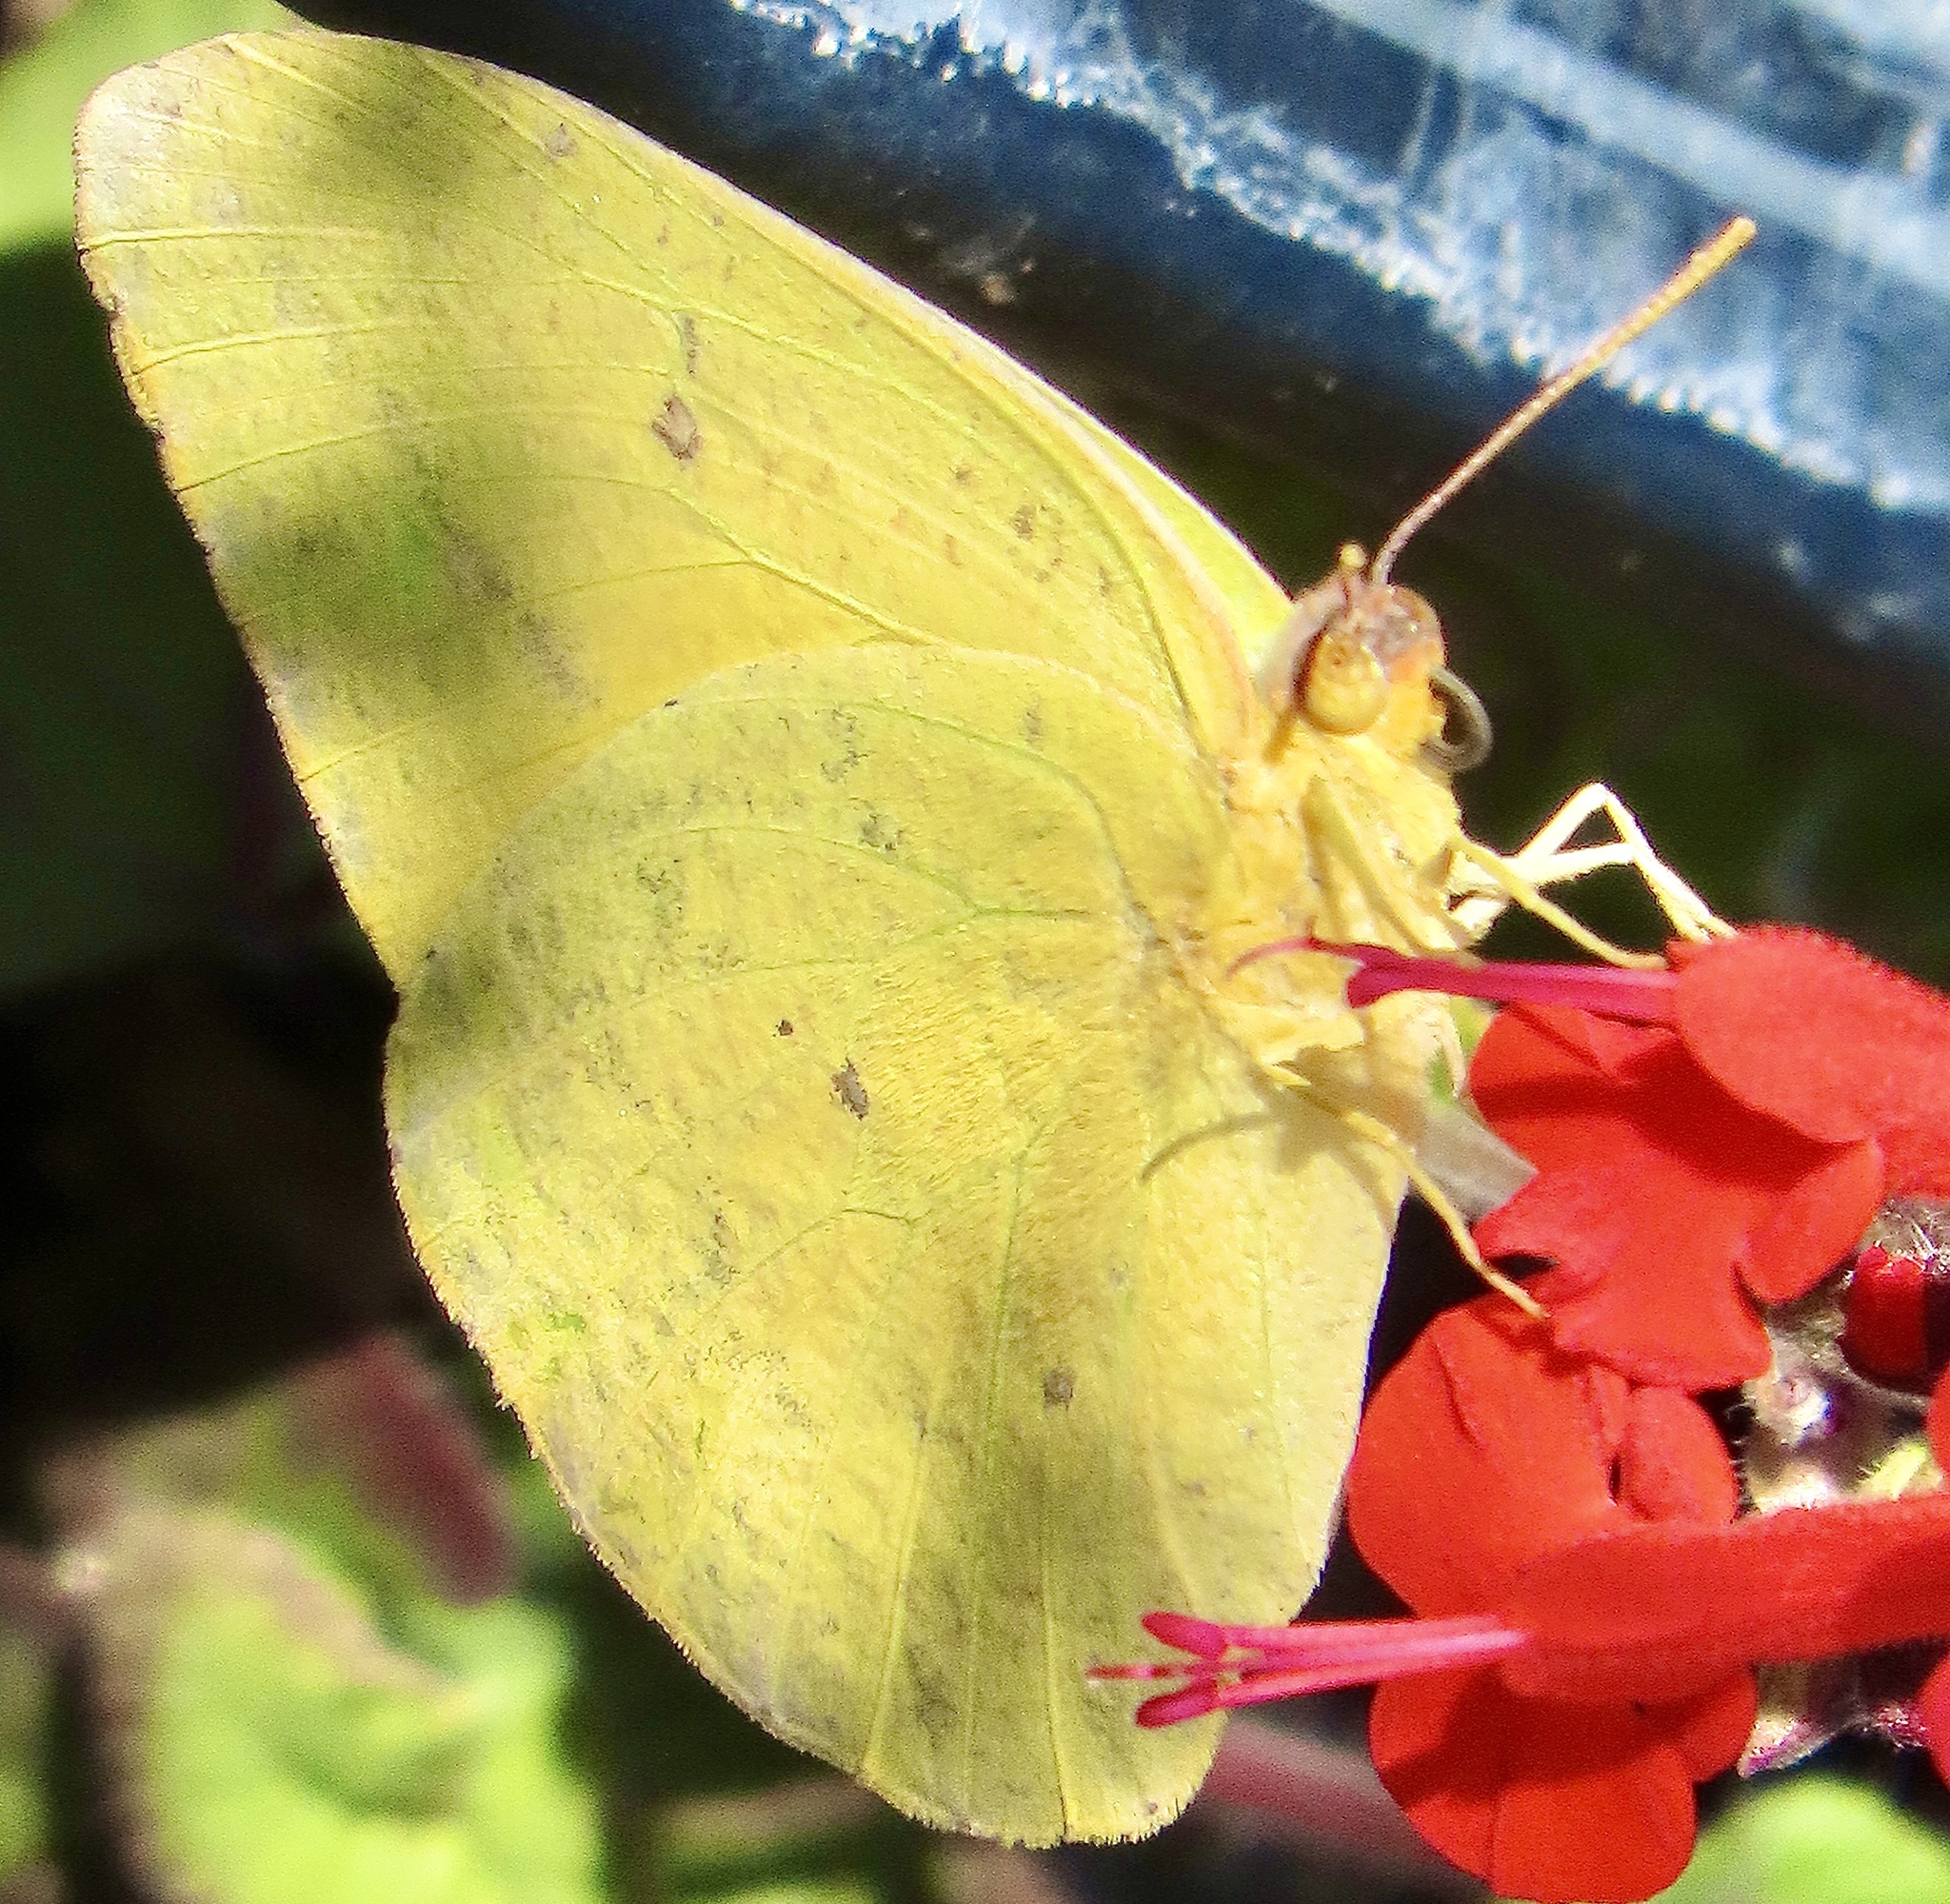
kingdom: Animalia
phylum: Arthropoda
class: Insecta
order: Lepidoptera
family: Pieridae
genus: Phoebis
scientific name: Phoebis agarithe
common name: Large orange sulphur
